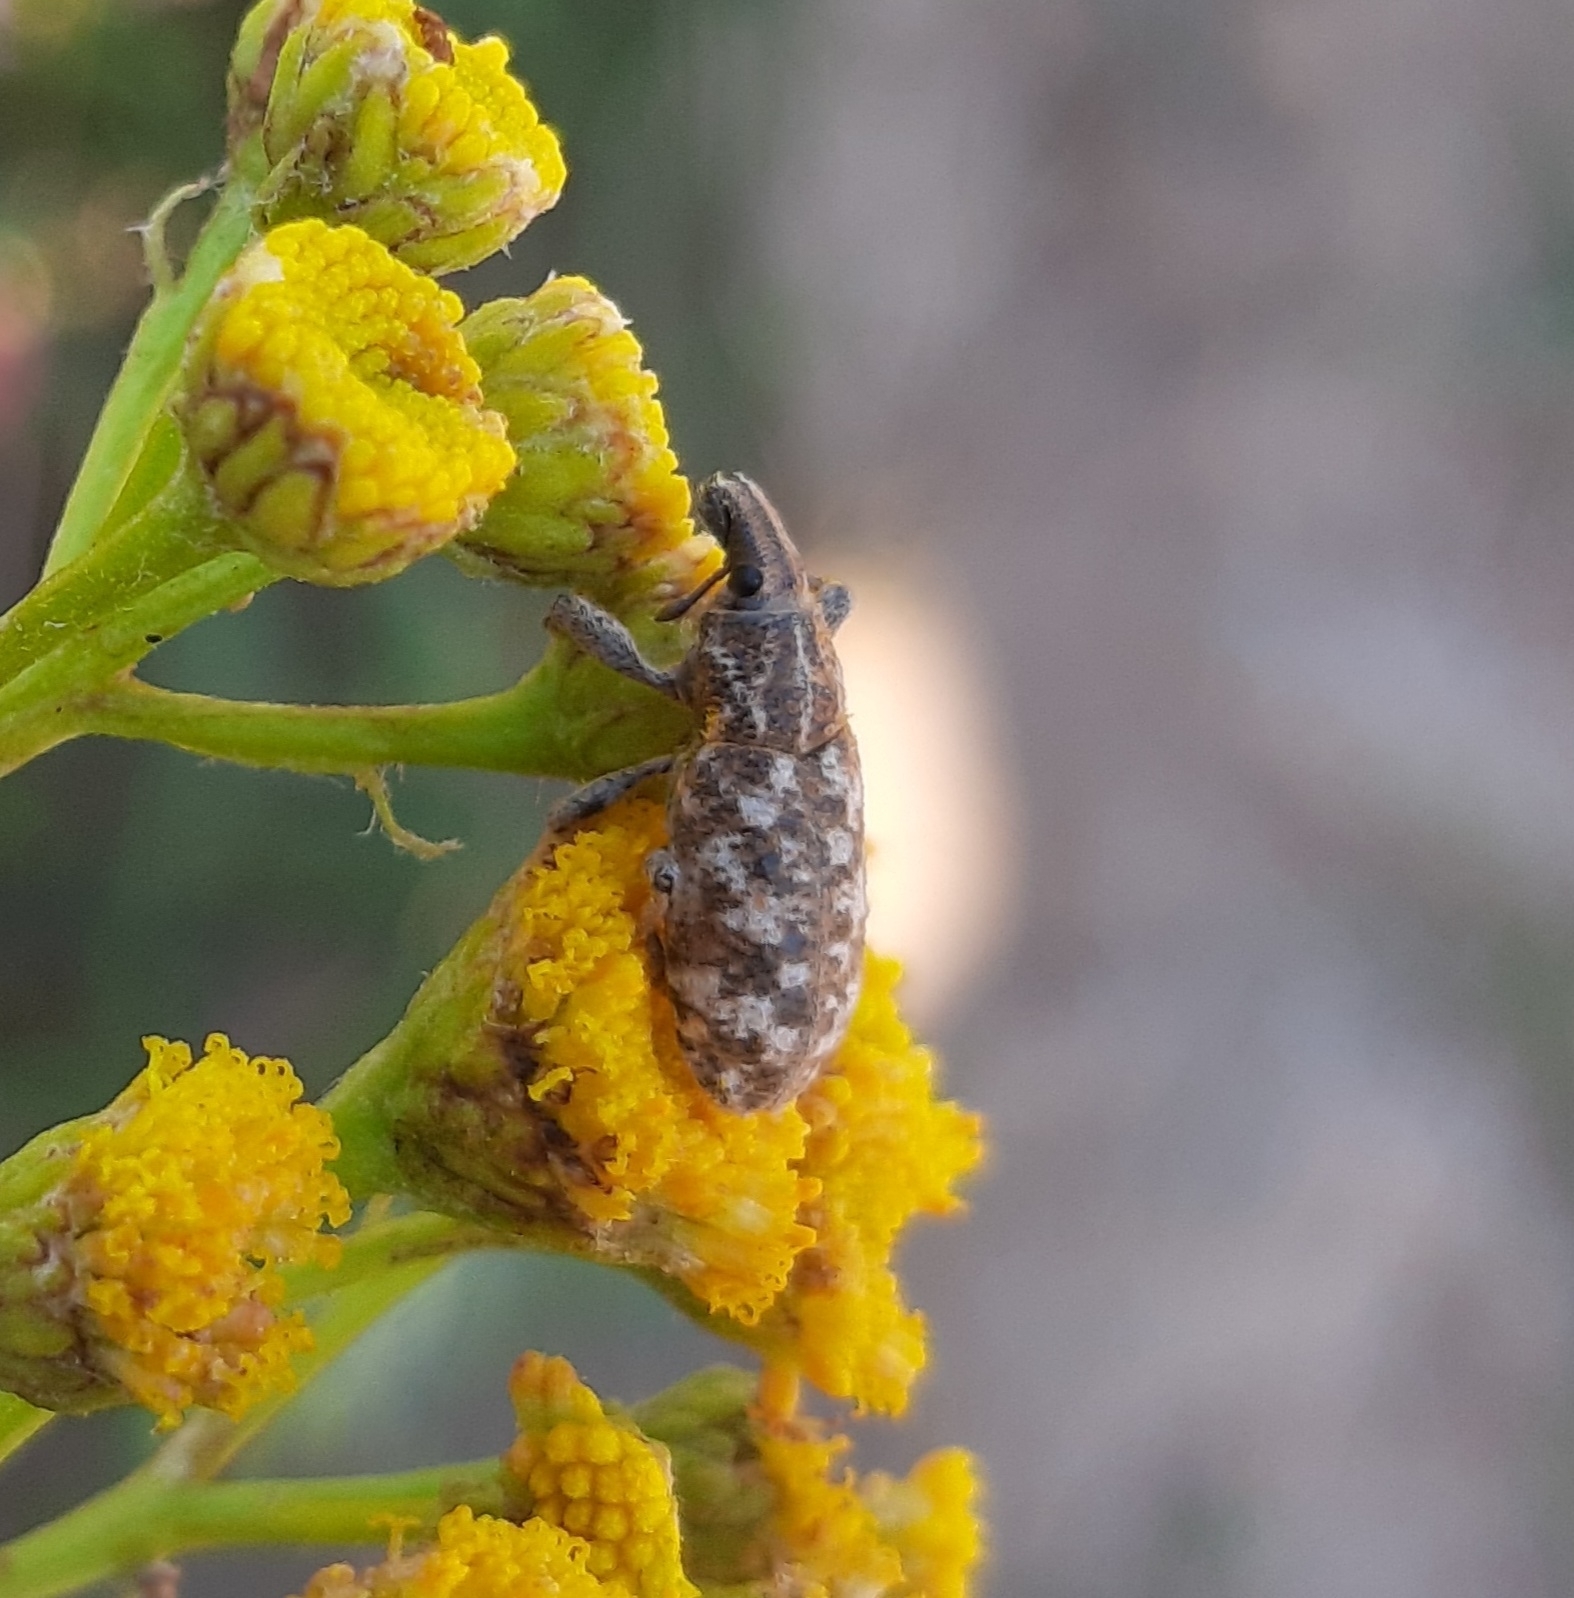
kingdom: Animalia
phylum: Arthropoda
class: Insecta
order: Coleoptera
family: Curculionidae
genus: Cyphocleonus
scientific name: Cyphocleonus dealbatus
